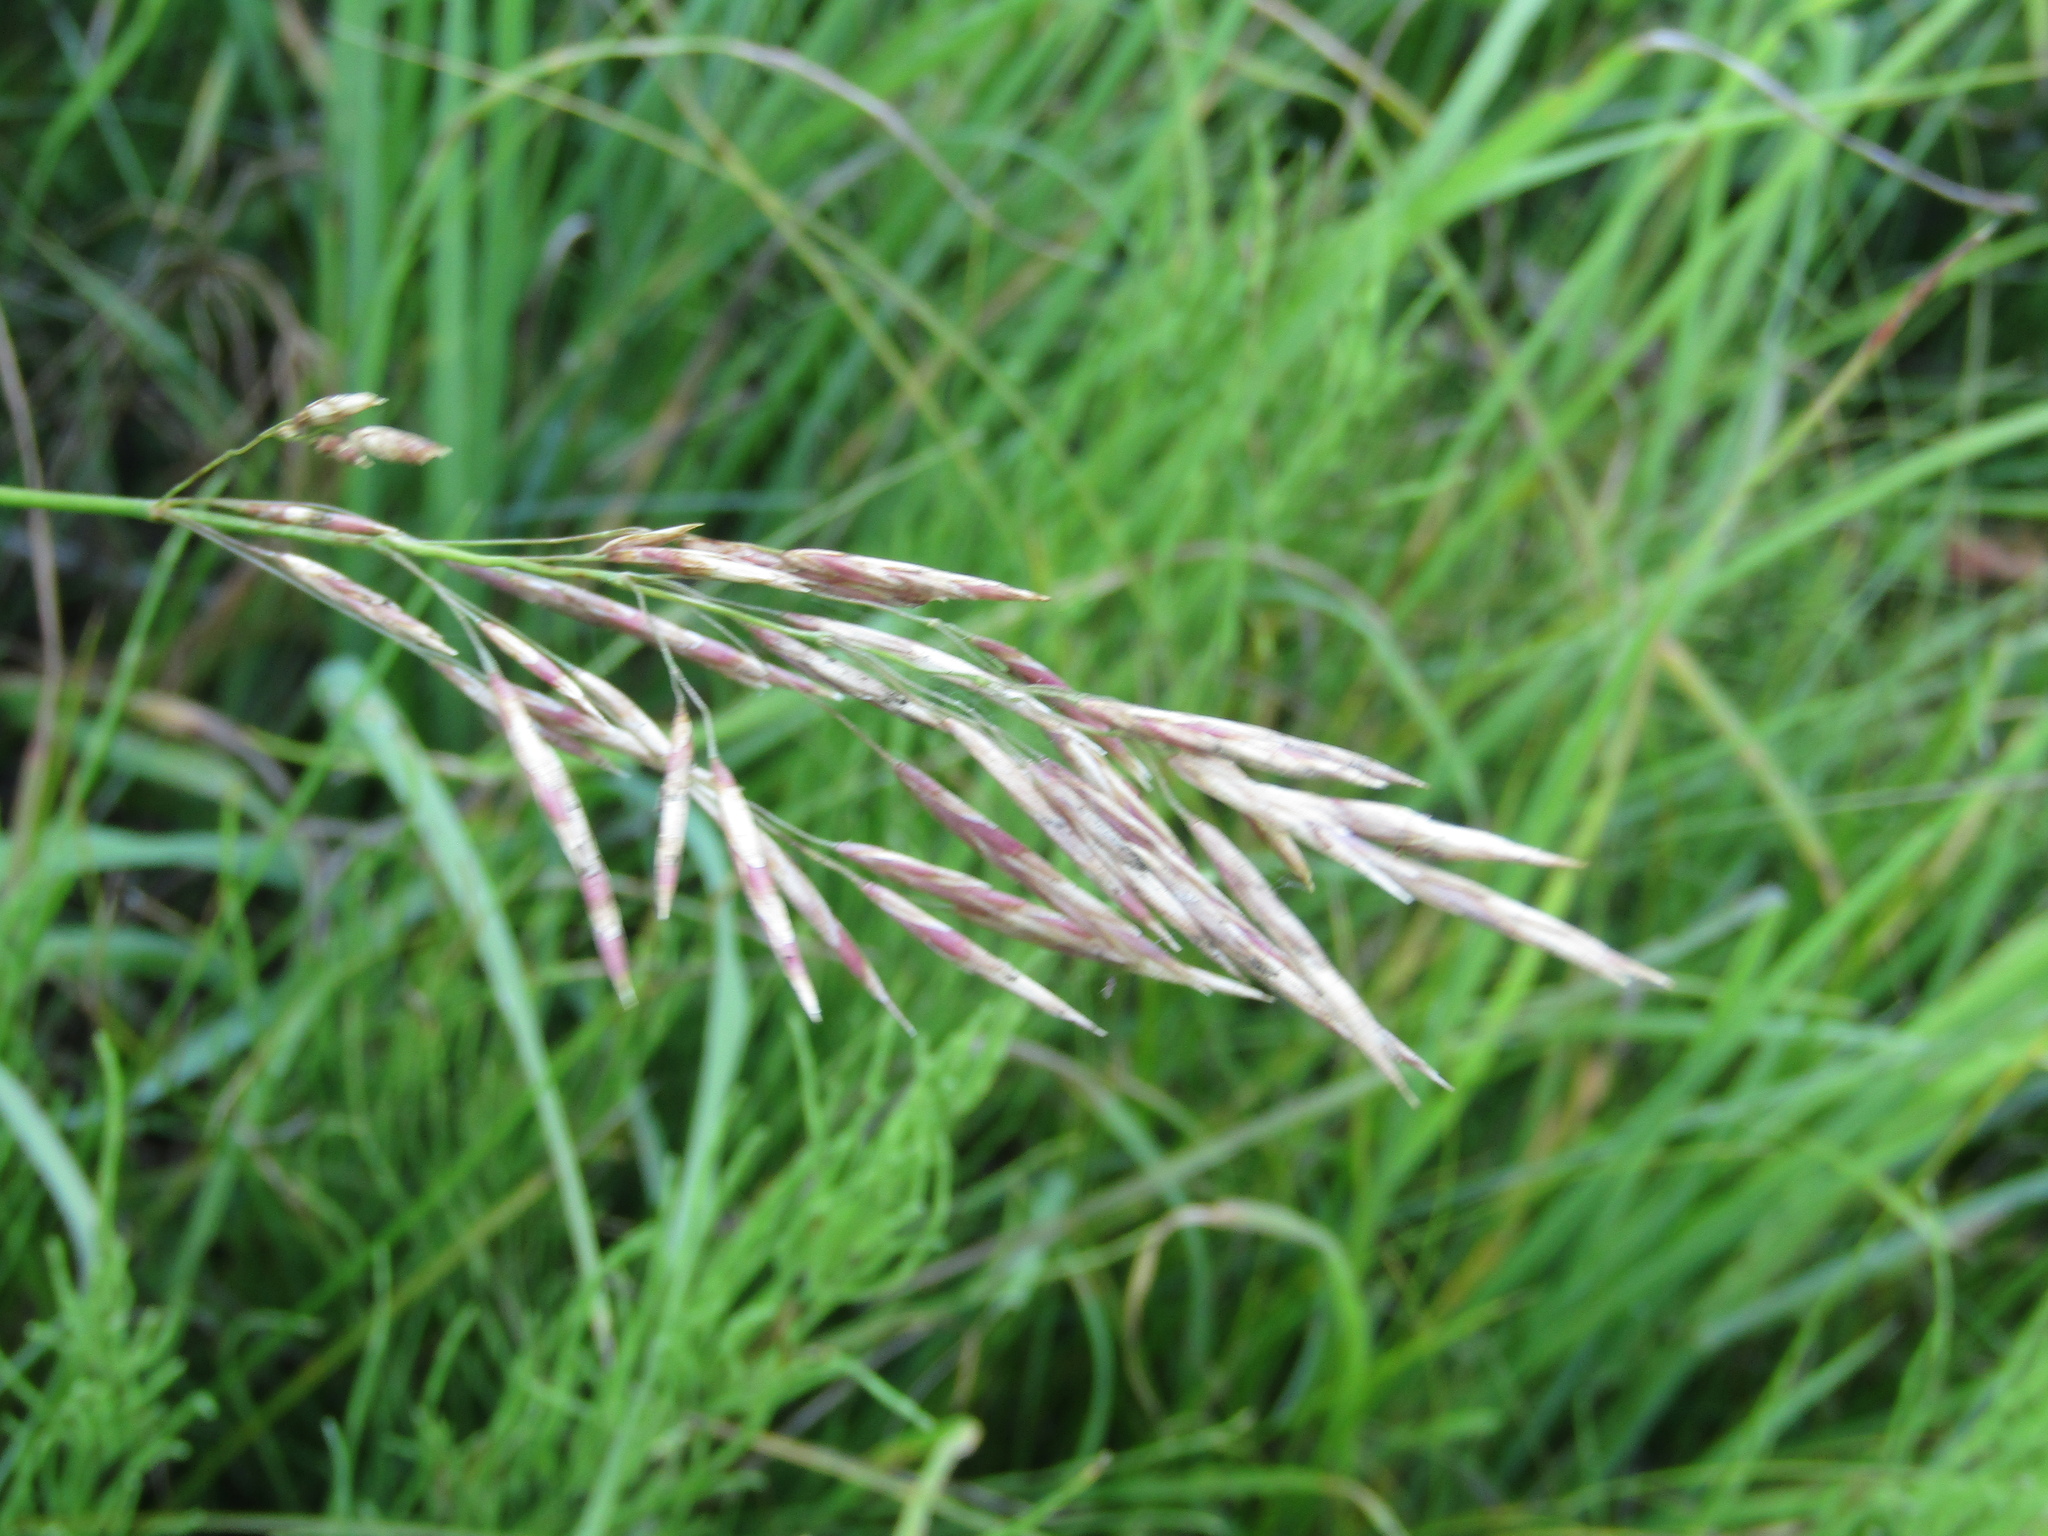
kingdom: Plantae
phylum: Tracheophyta
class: Liliopsida
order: Poales
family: Poaceae
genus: Bromus
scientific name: Bromus inermis
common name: Smooth brome
